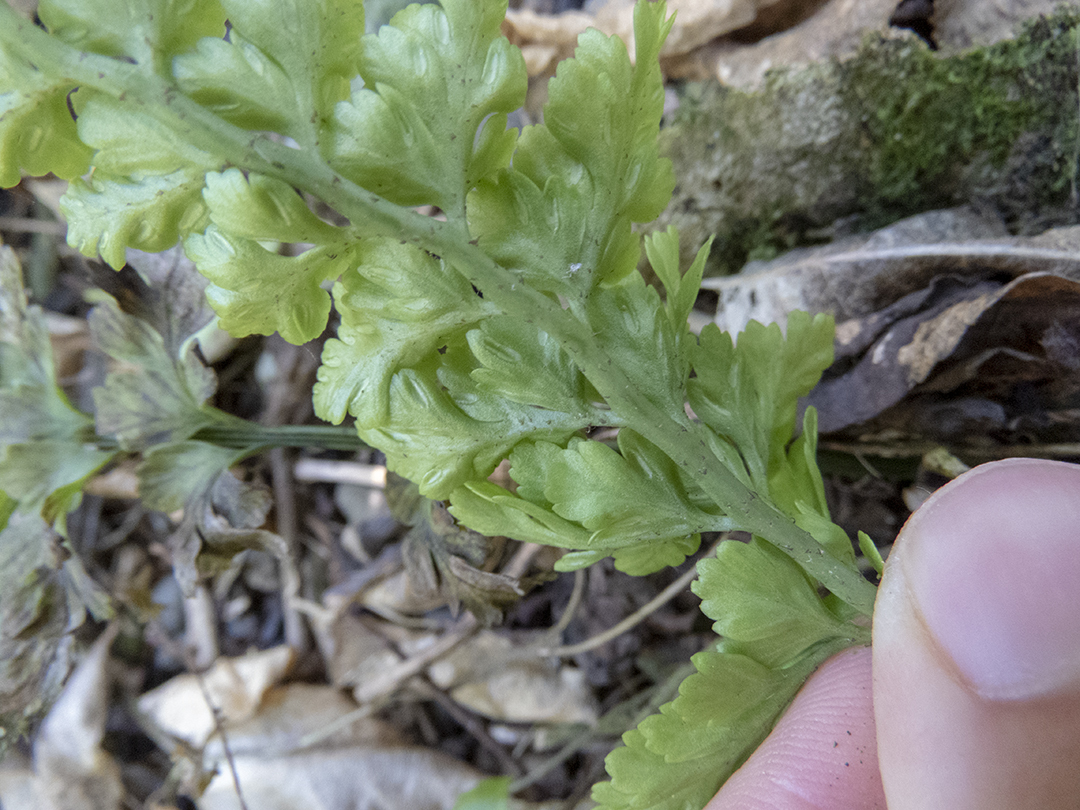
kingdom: Plantae
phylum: Tracheophyta
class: Polypodiopsida
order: Polypodiales
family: Aspleniaceae
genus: Asplenium
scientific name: Asplenium
